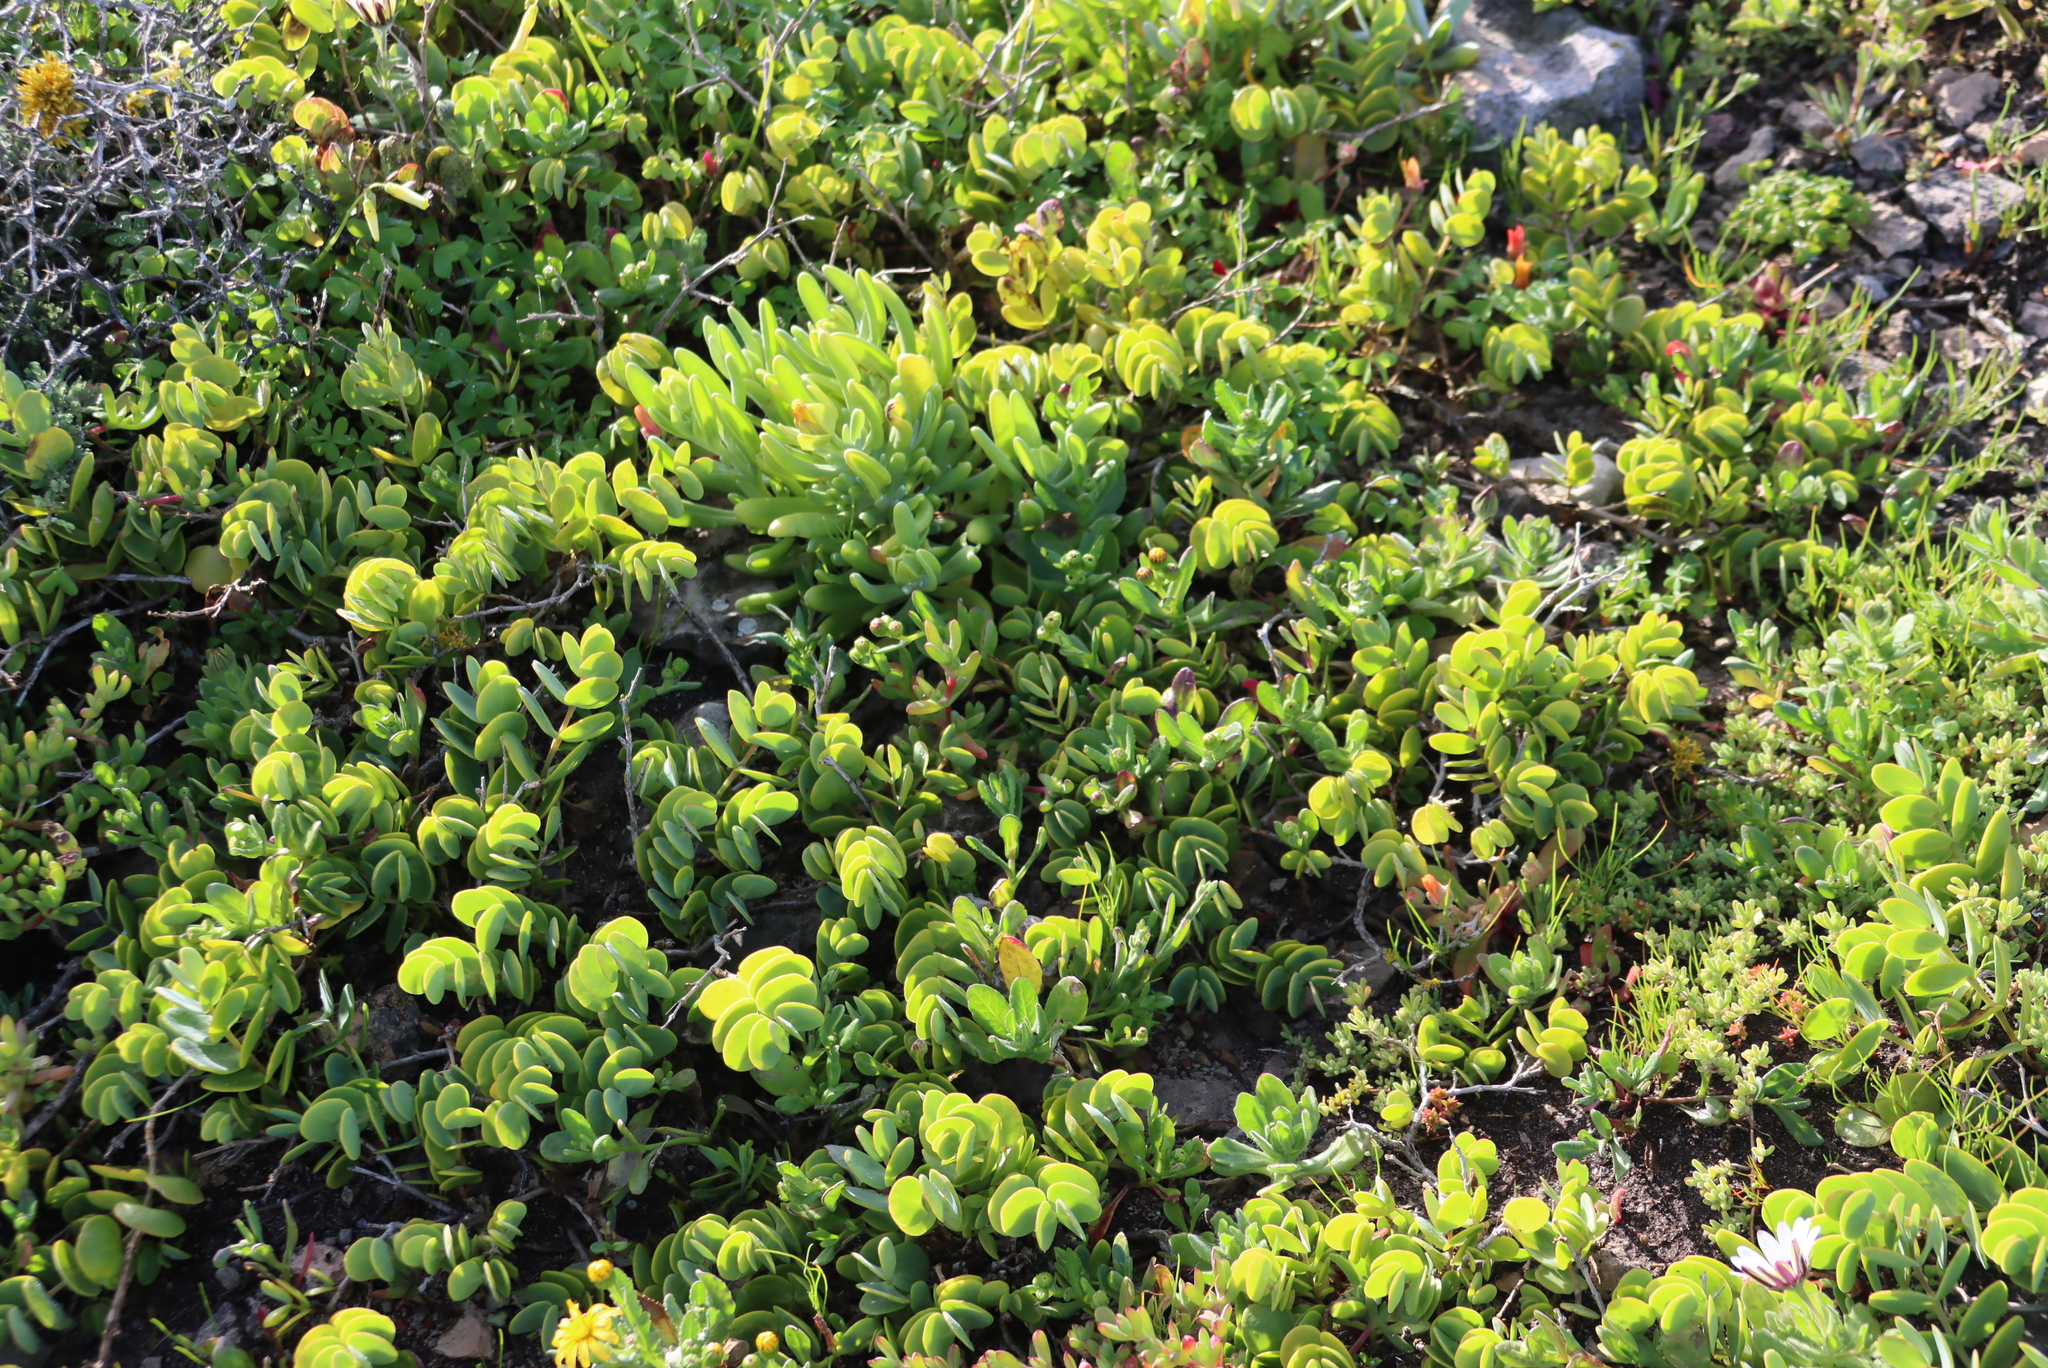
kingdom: Plantae
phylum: Tracheophyta
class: Magnoliopsida
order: Zygophyllales
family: Zygophyllaceae
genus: Roepera
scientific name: Roepera cordifolia
